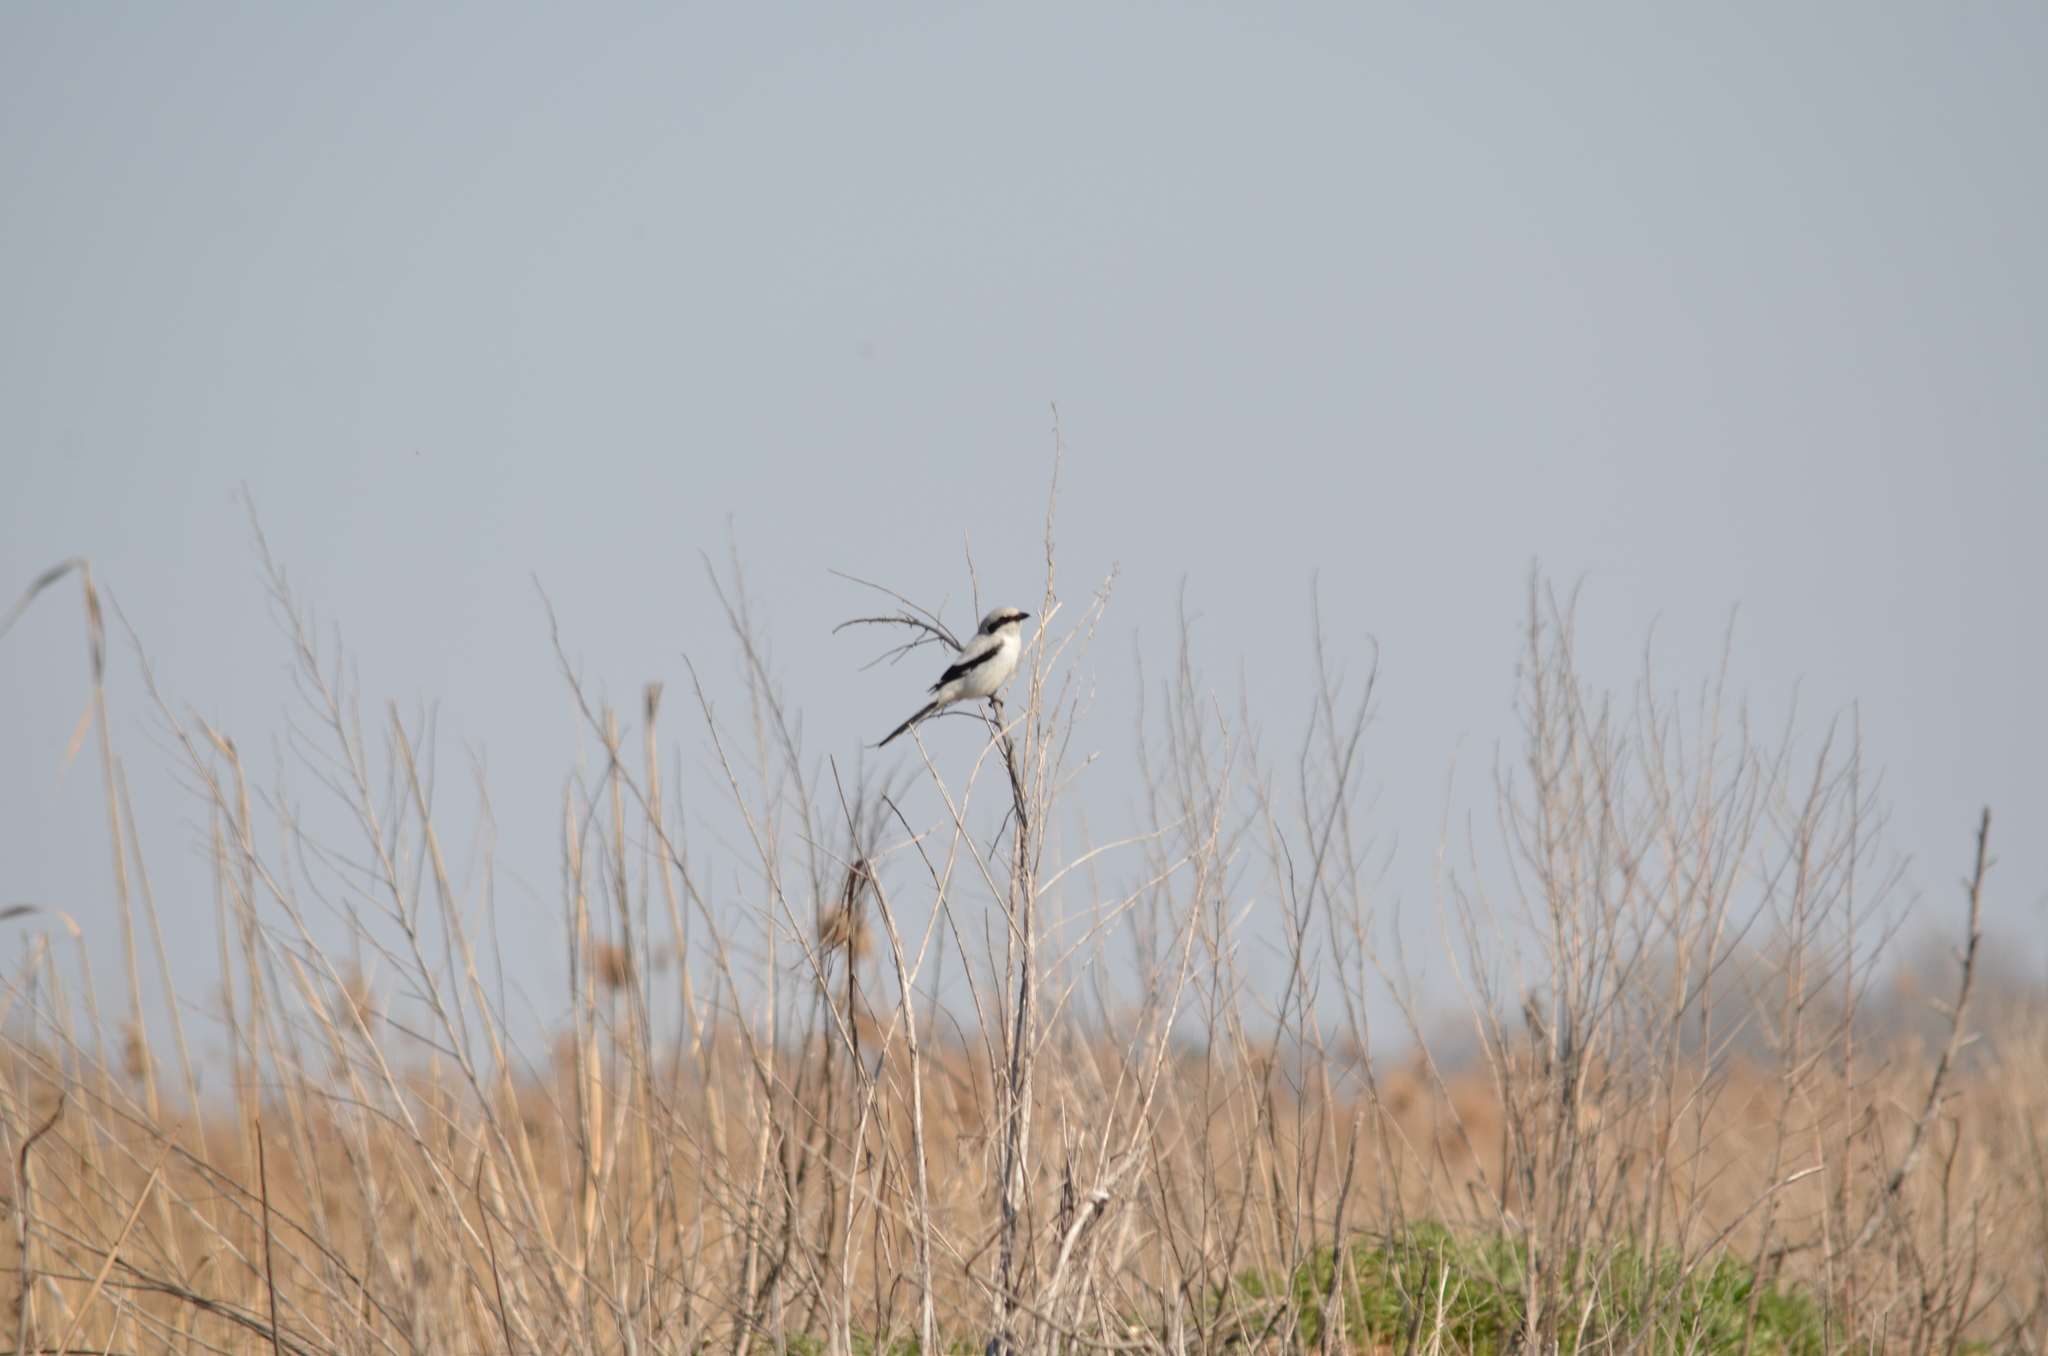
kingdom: Animalia
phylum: Chordata
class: Aves
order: Passeriformes
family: Laniidae
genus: Lanius
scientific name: Lanius excubitor
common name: Great grey shrike
